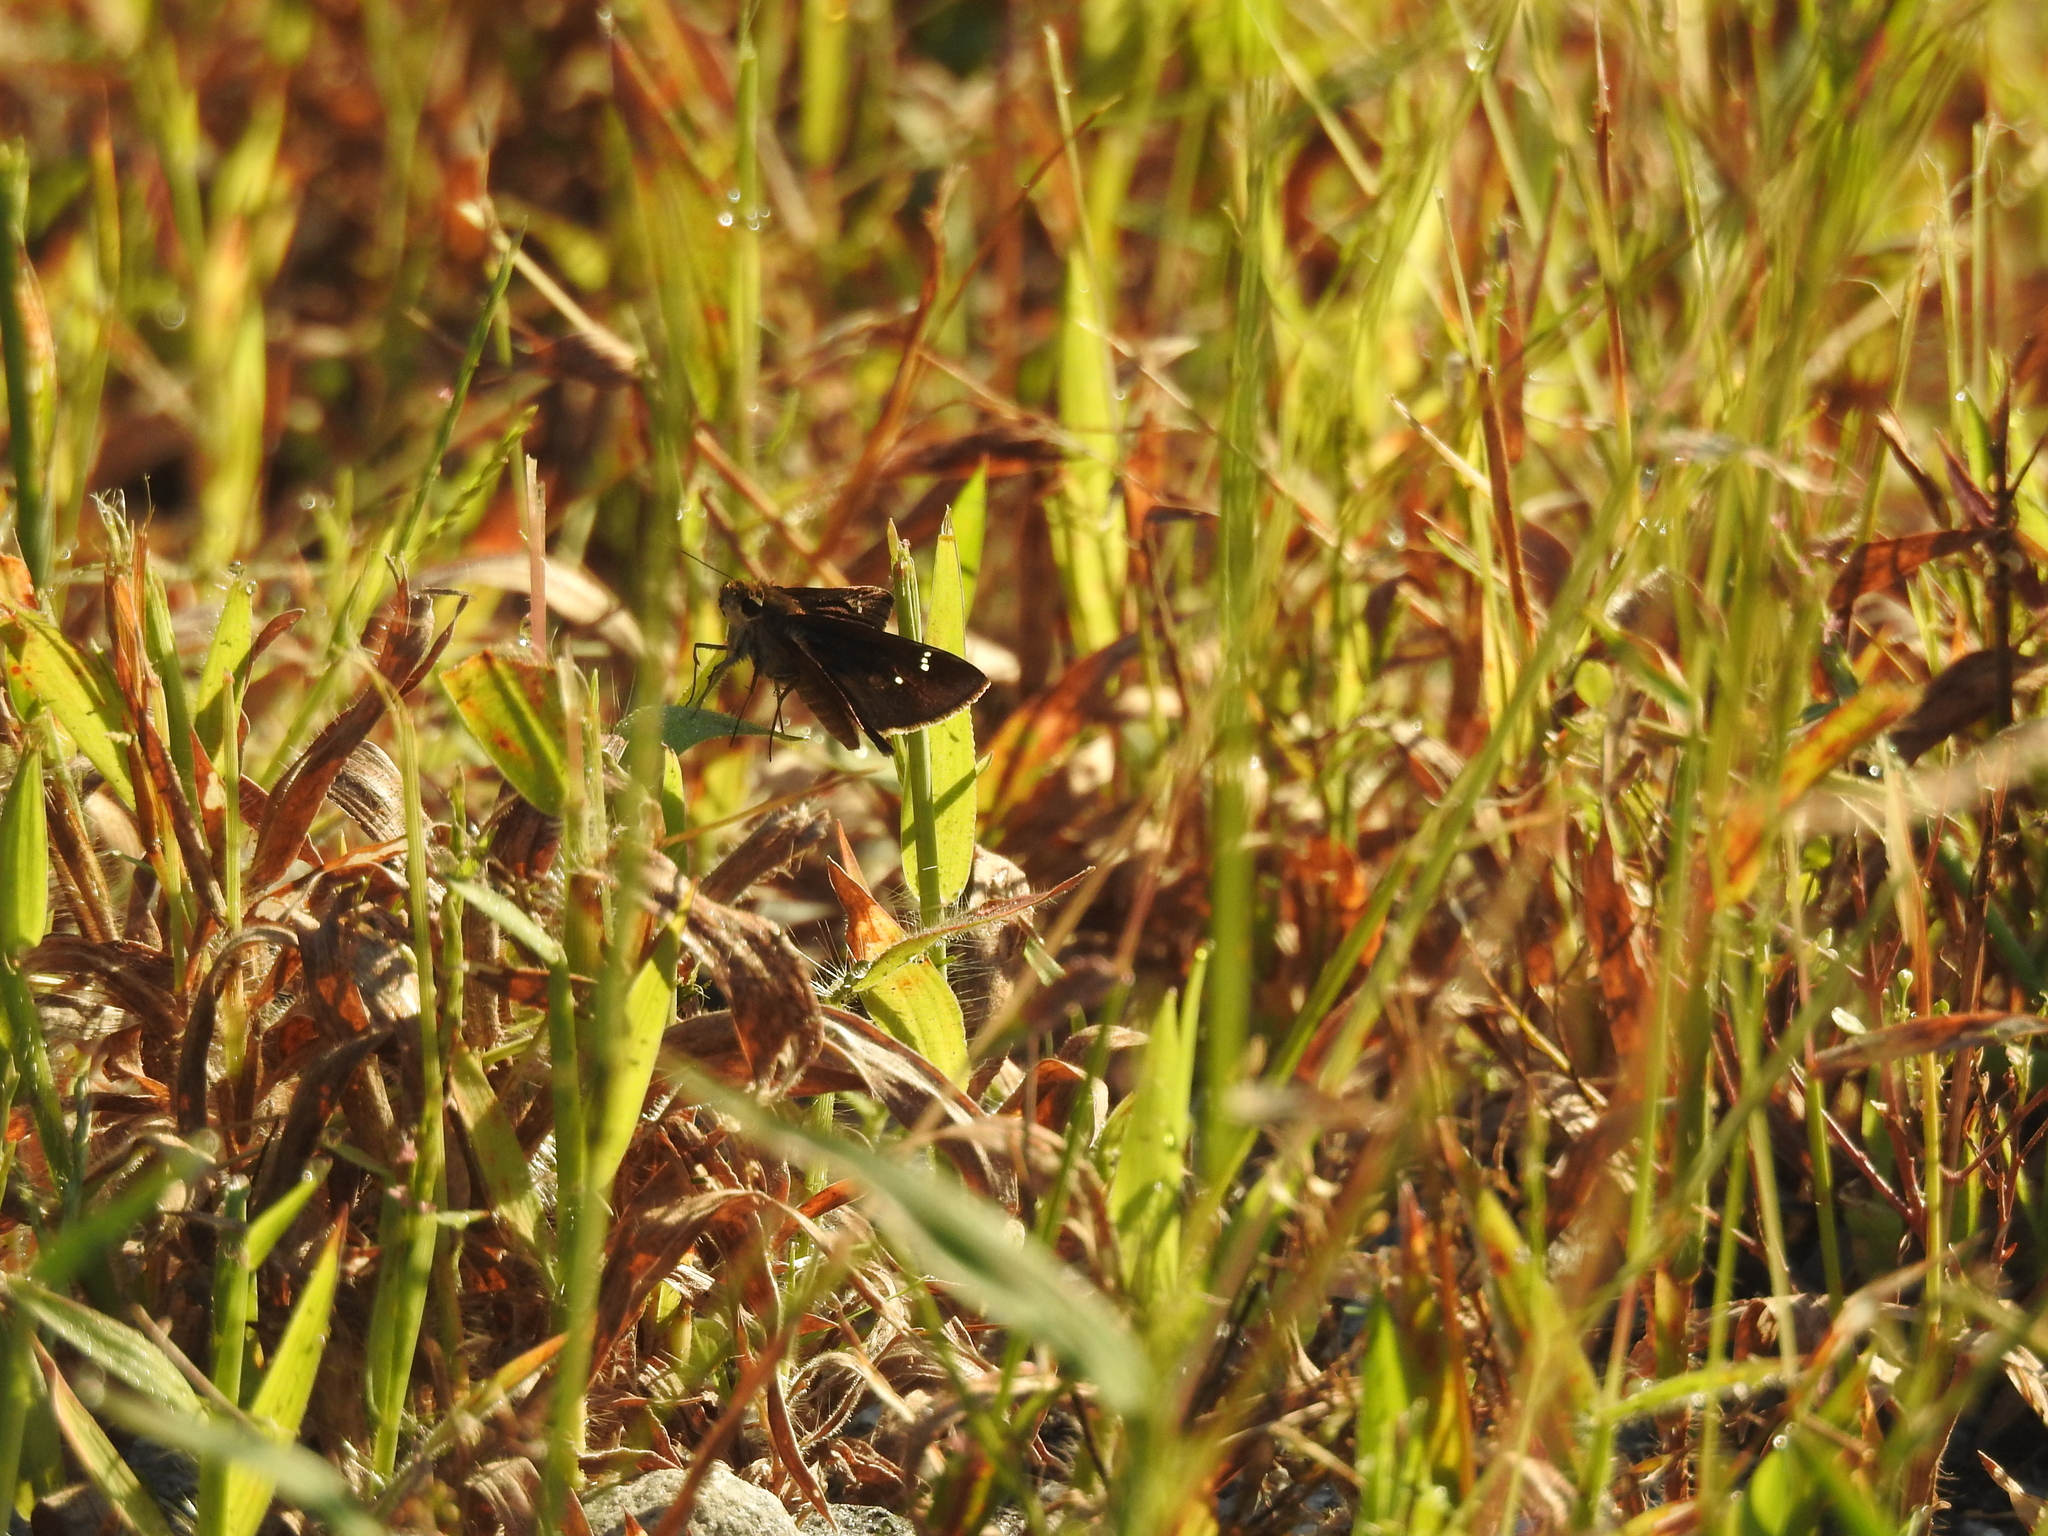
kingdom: Animalia
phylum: Arthropoda
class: Insecta
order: Lepidoptera
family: Hesperiidae
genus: Lerema
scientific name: Lerema accius
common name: Clouded skipper
